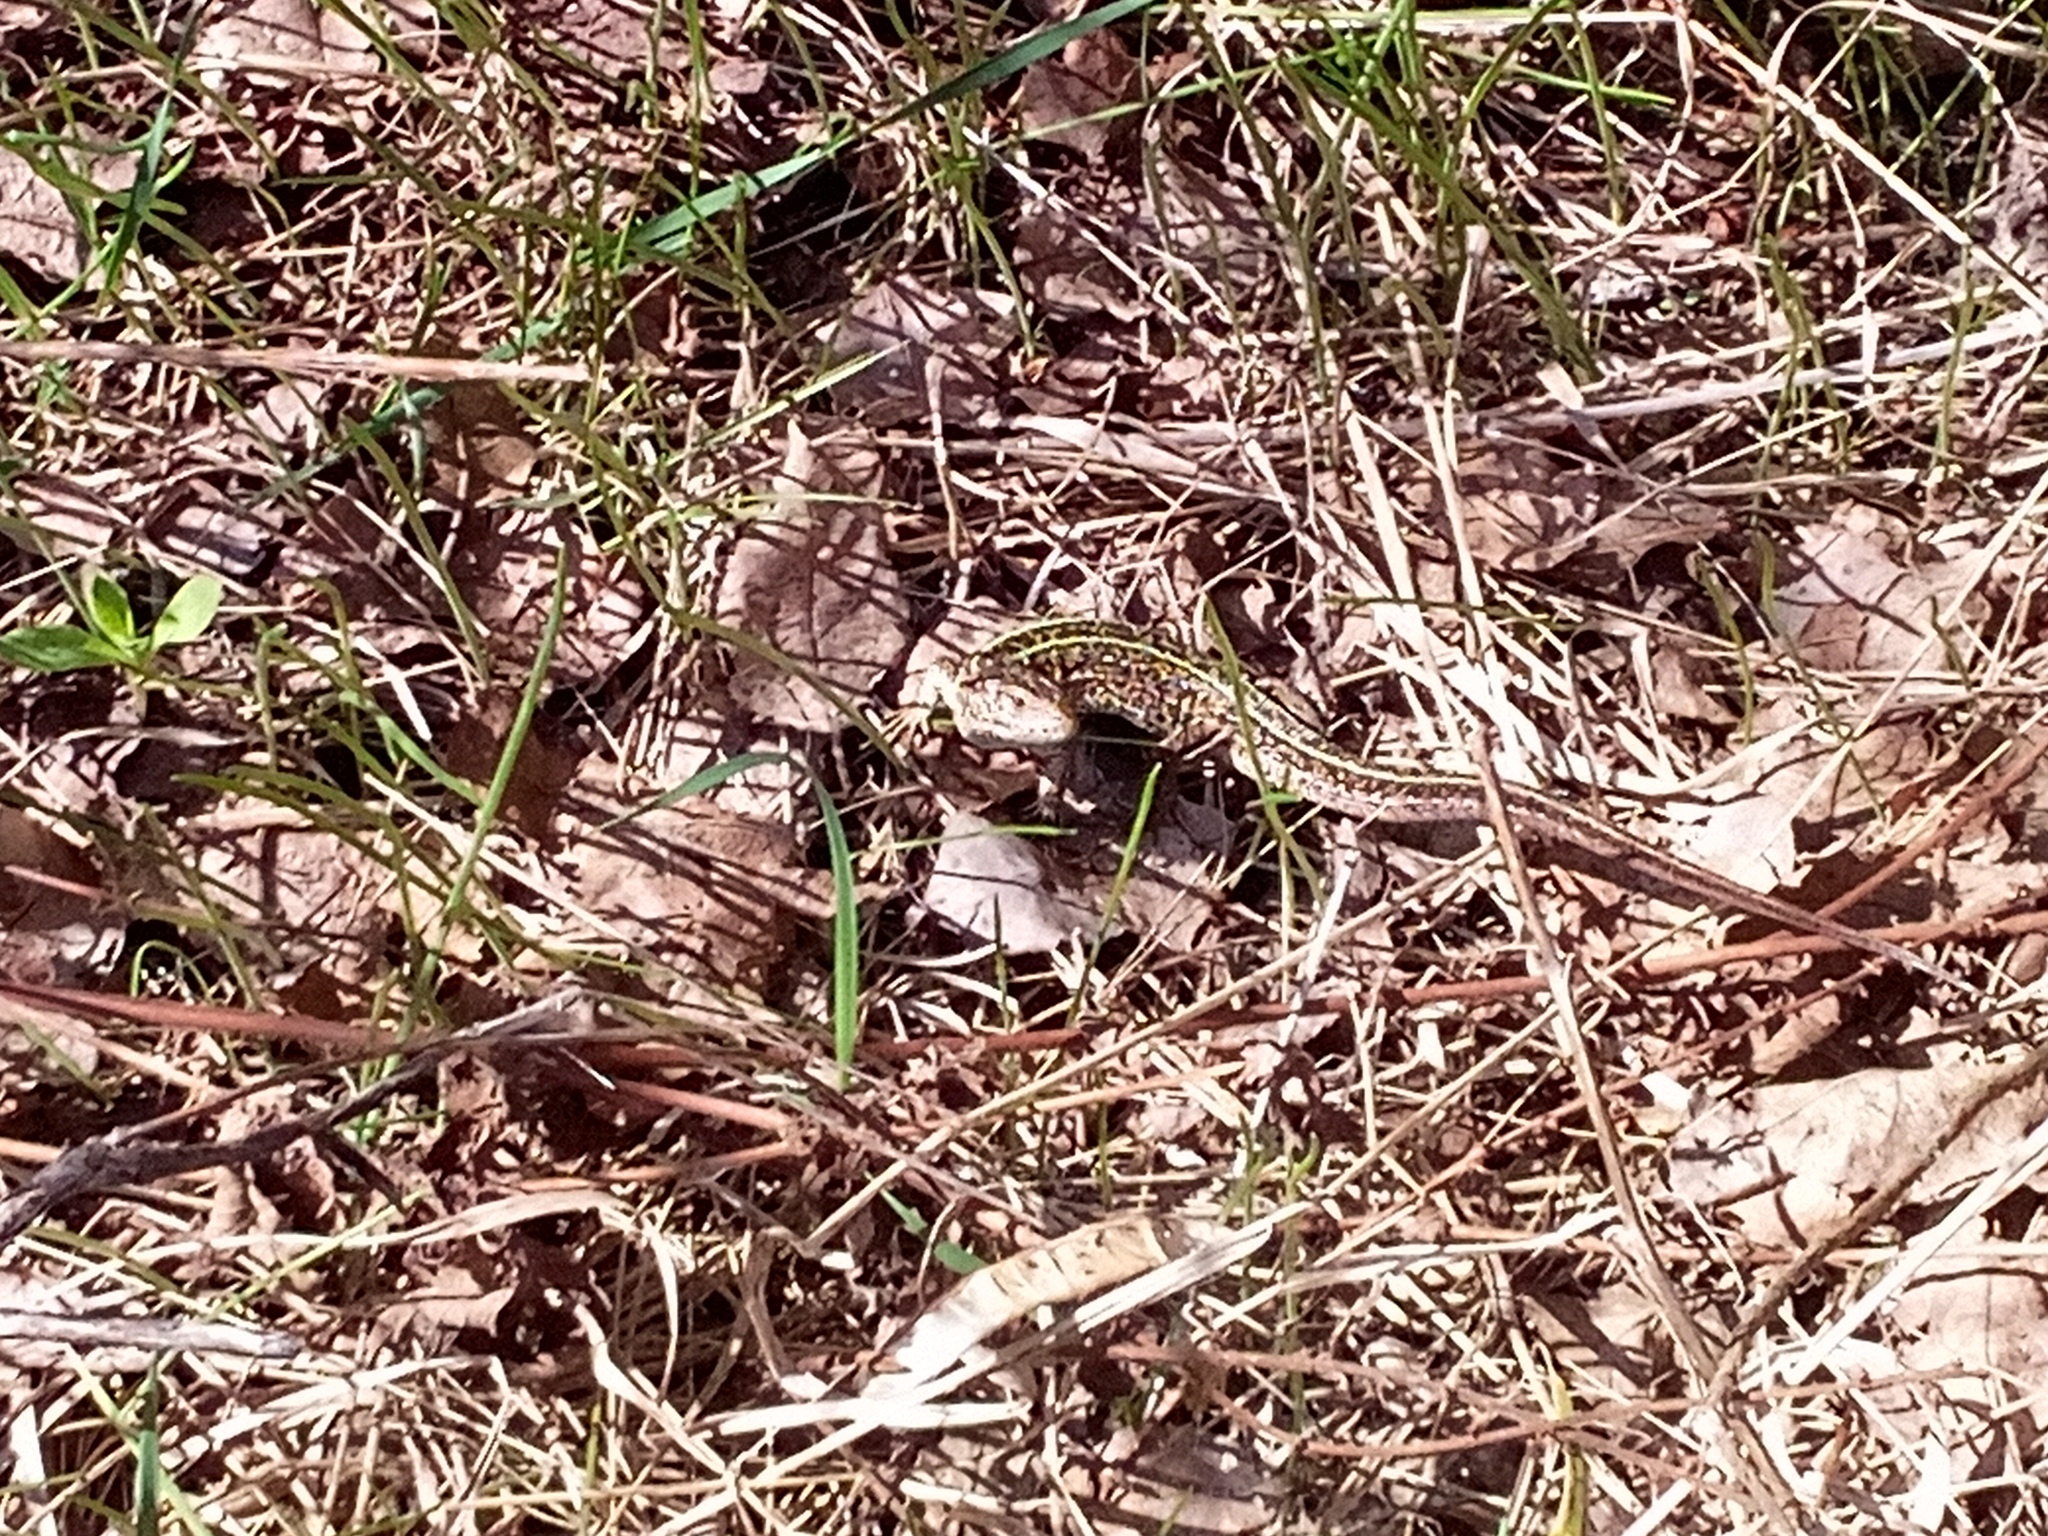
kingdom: Animalia
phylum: Chordata
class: Squamata
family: Lacertidae
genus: Lacerta
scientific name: Lacerta agilis
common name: Sand lizard
